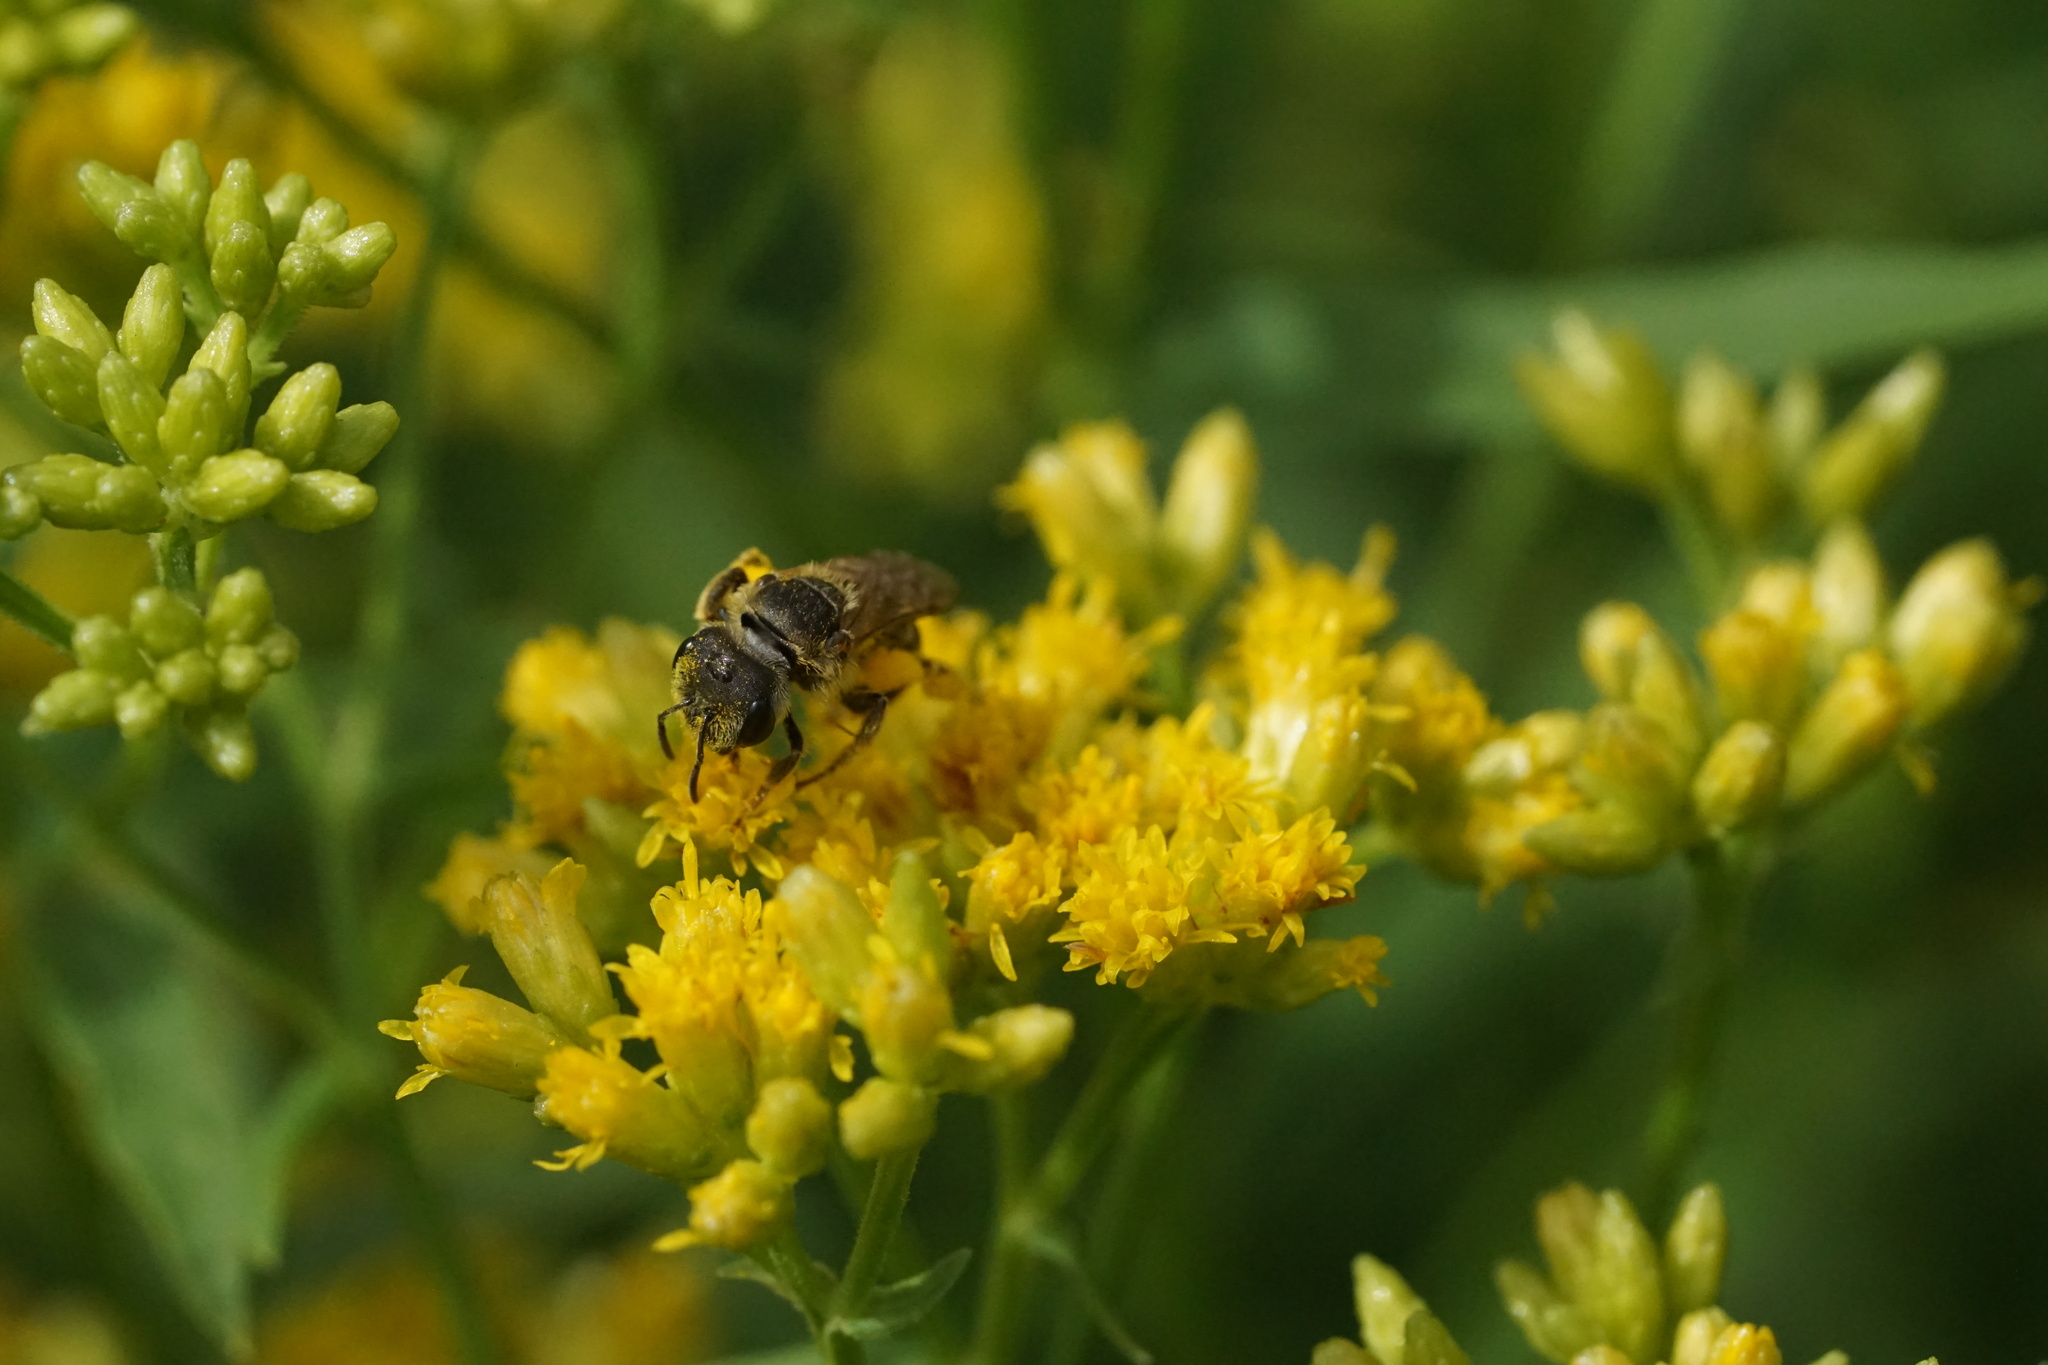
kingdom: Animalia
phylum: Arthropoda
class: Insecta
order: Hymenoptera
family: Halictidae
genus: Halictus
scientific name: Halictus ligatus
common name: Ligated furrow bee
